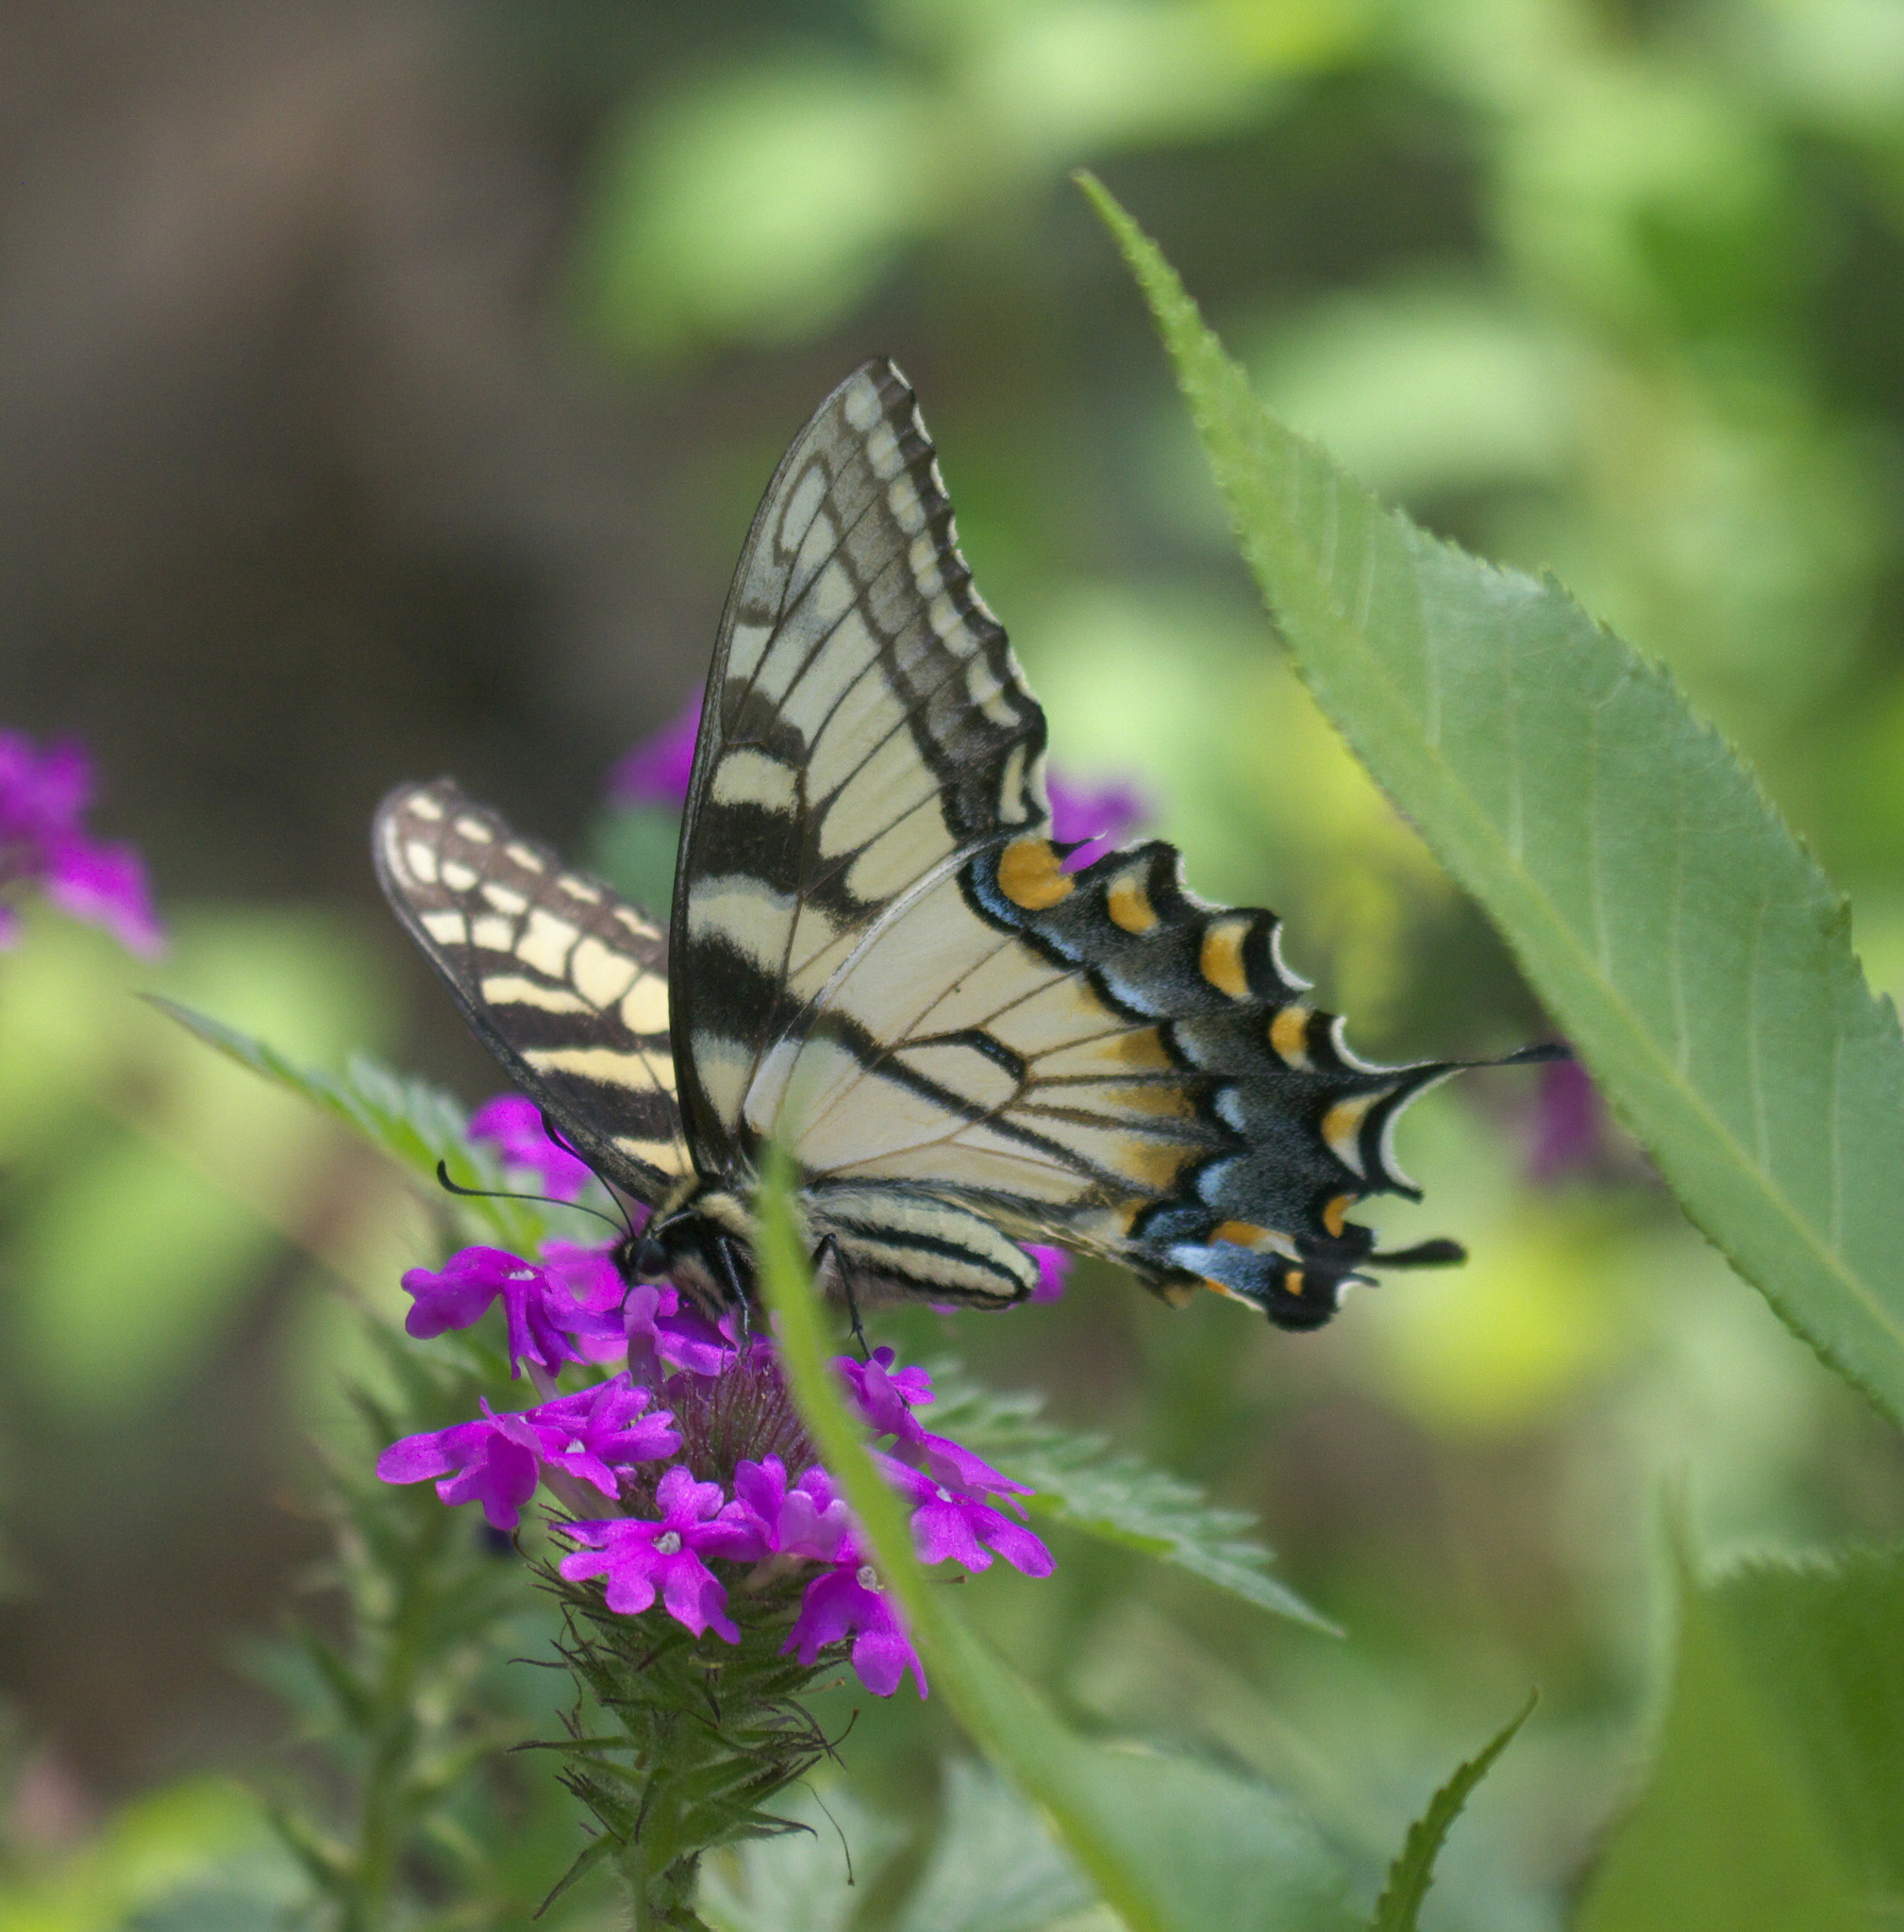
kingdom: Animalia
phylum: Arthropoda
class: Insecta
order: Lepidoptera
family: Papilionidae
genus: Papilio
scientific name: Papilio glaucus
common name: Tiger swallowtail
